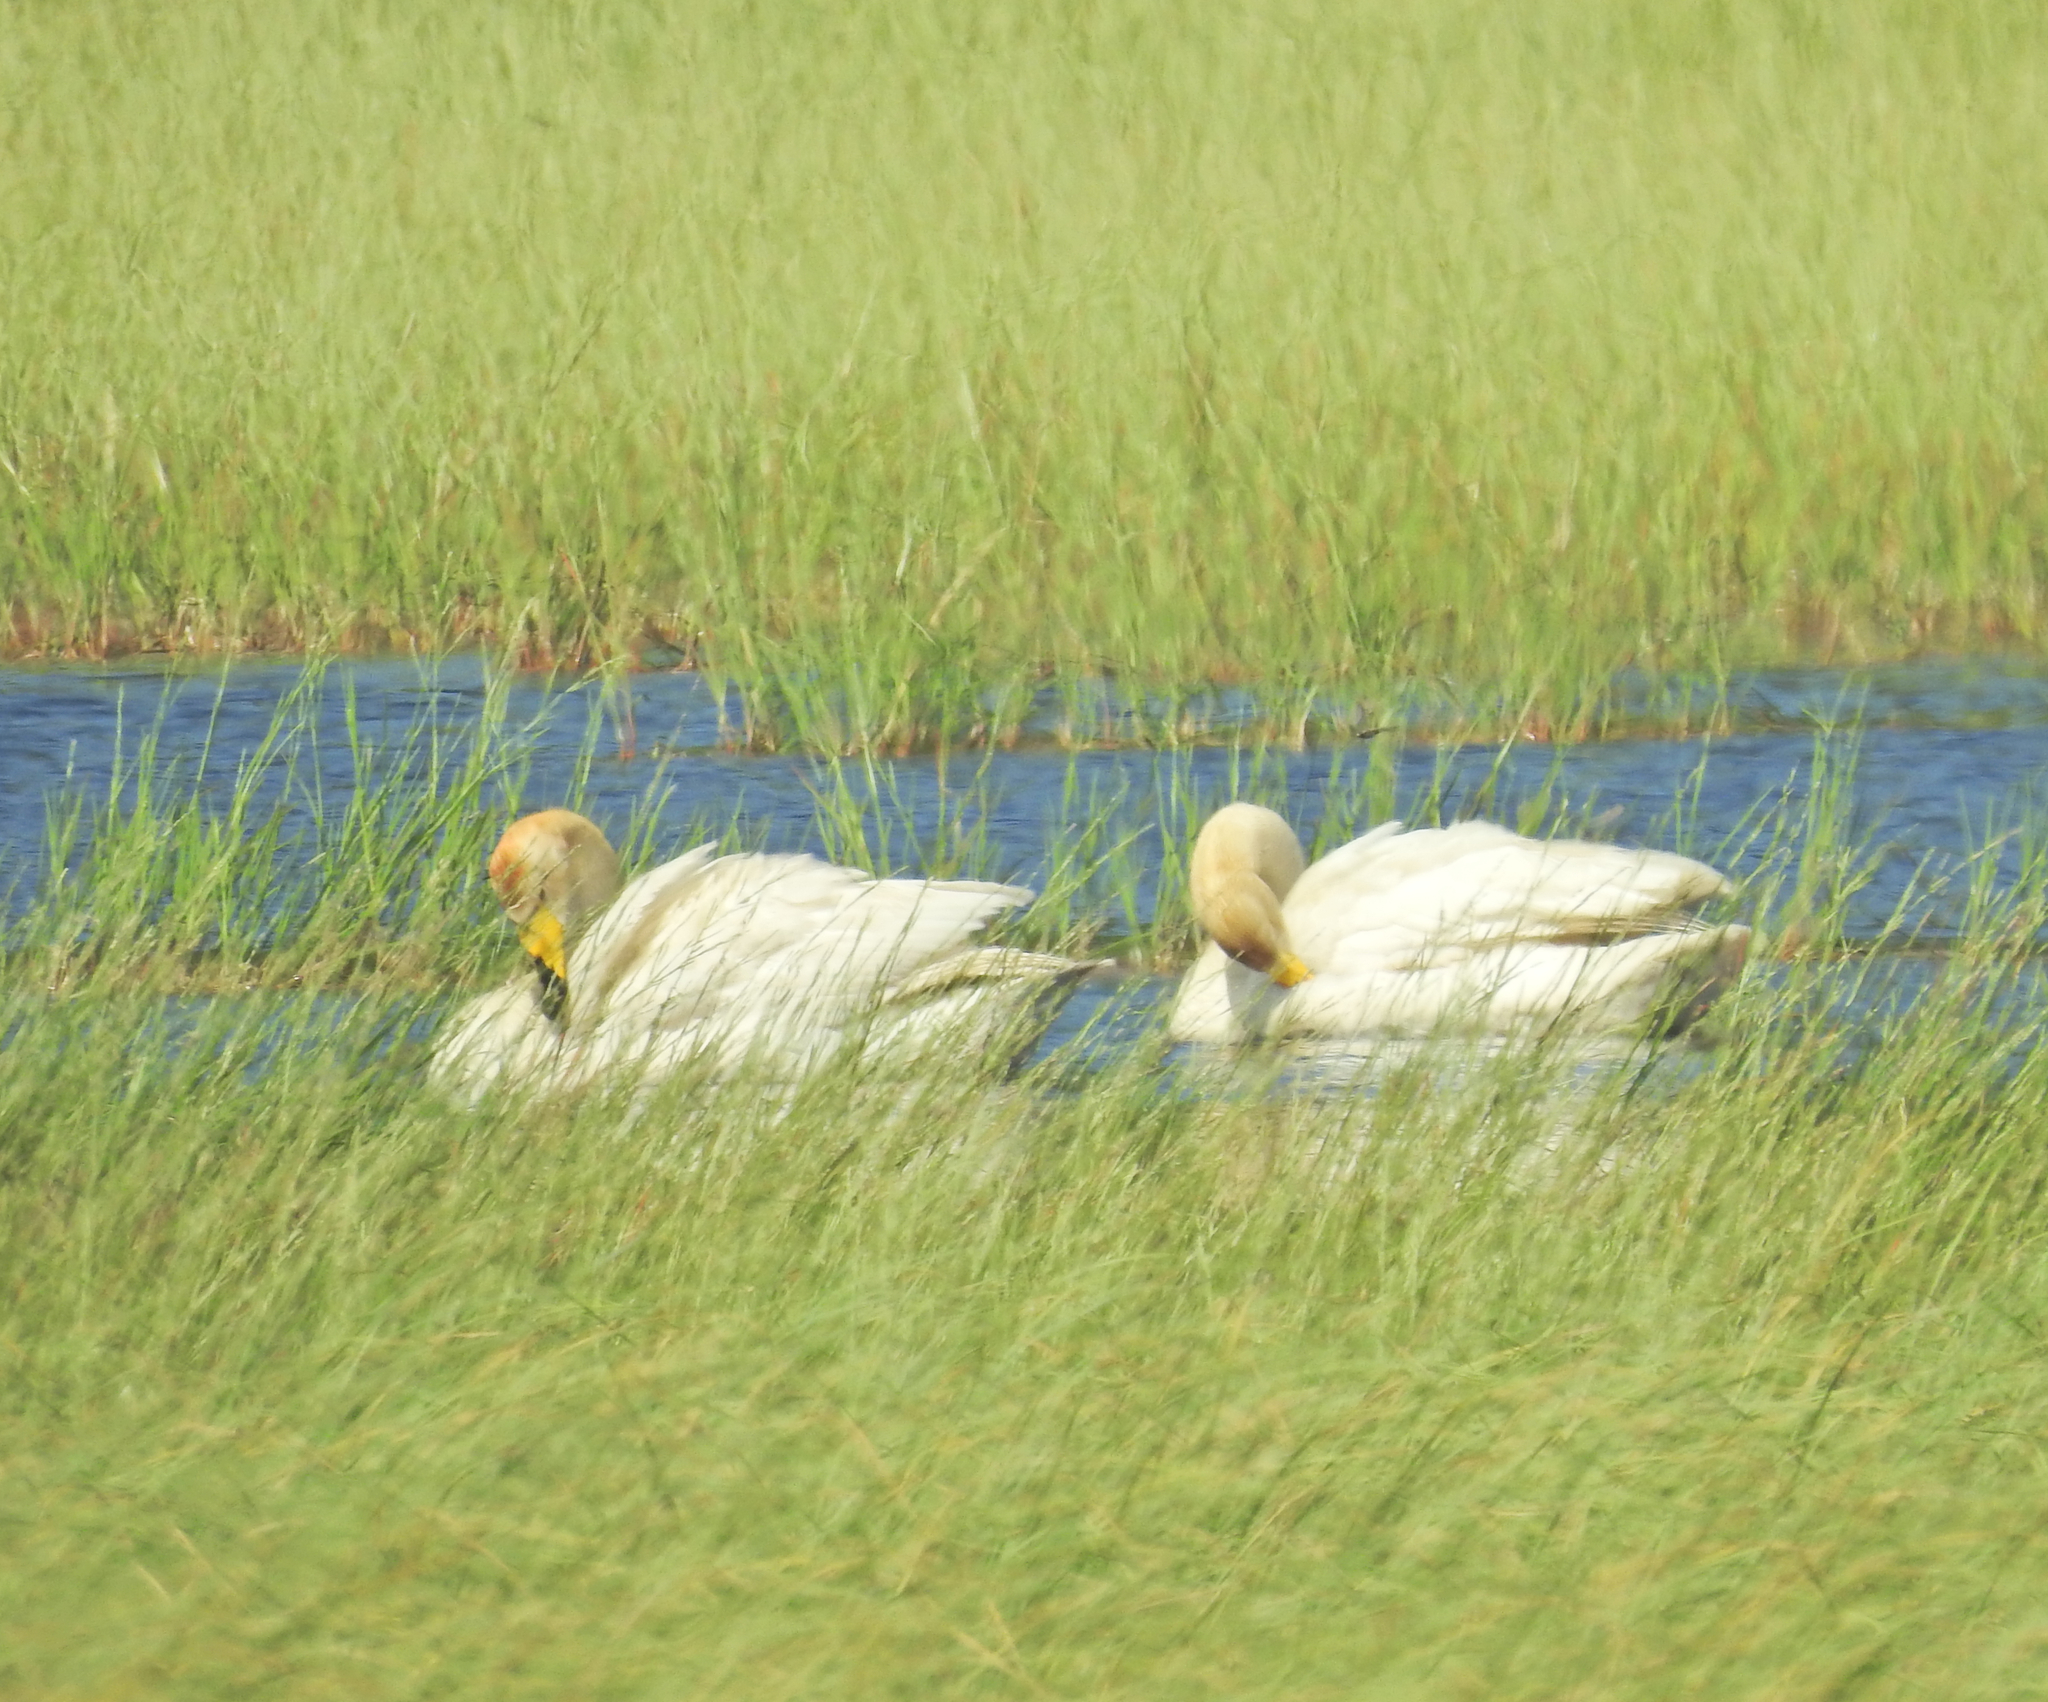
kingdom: Animalia
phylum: Chordata
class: Aves
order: Anseriformes
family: Anatidae
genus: Cygnus
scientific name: Cygnus cygnus
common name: Whooper swan
